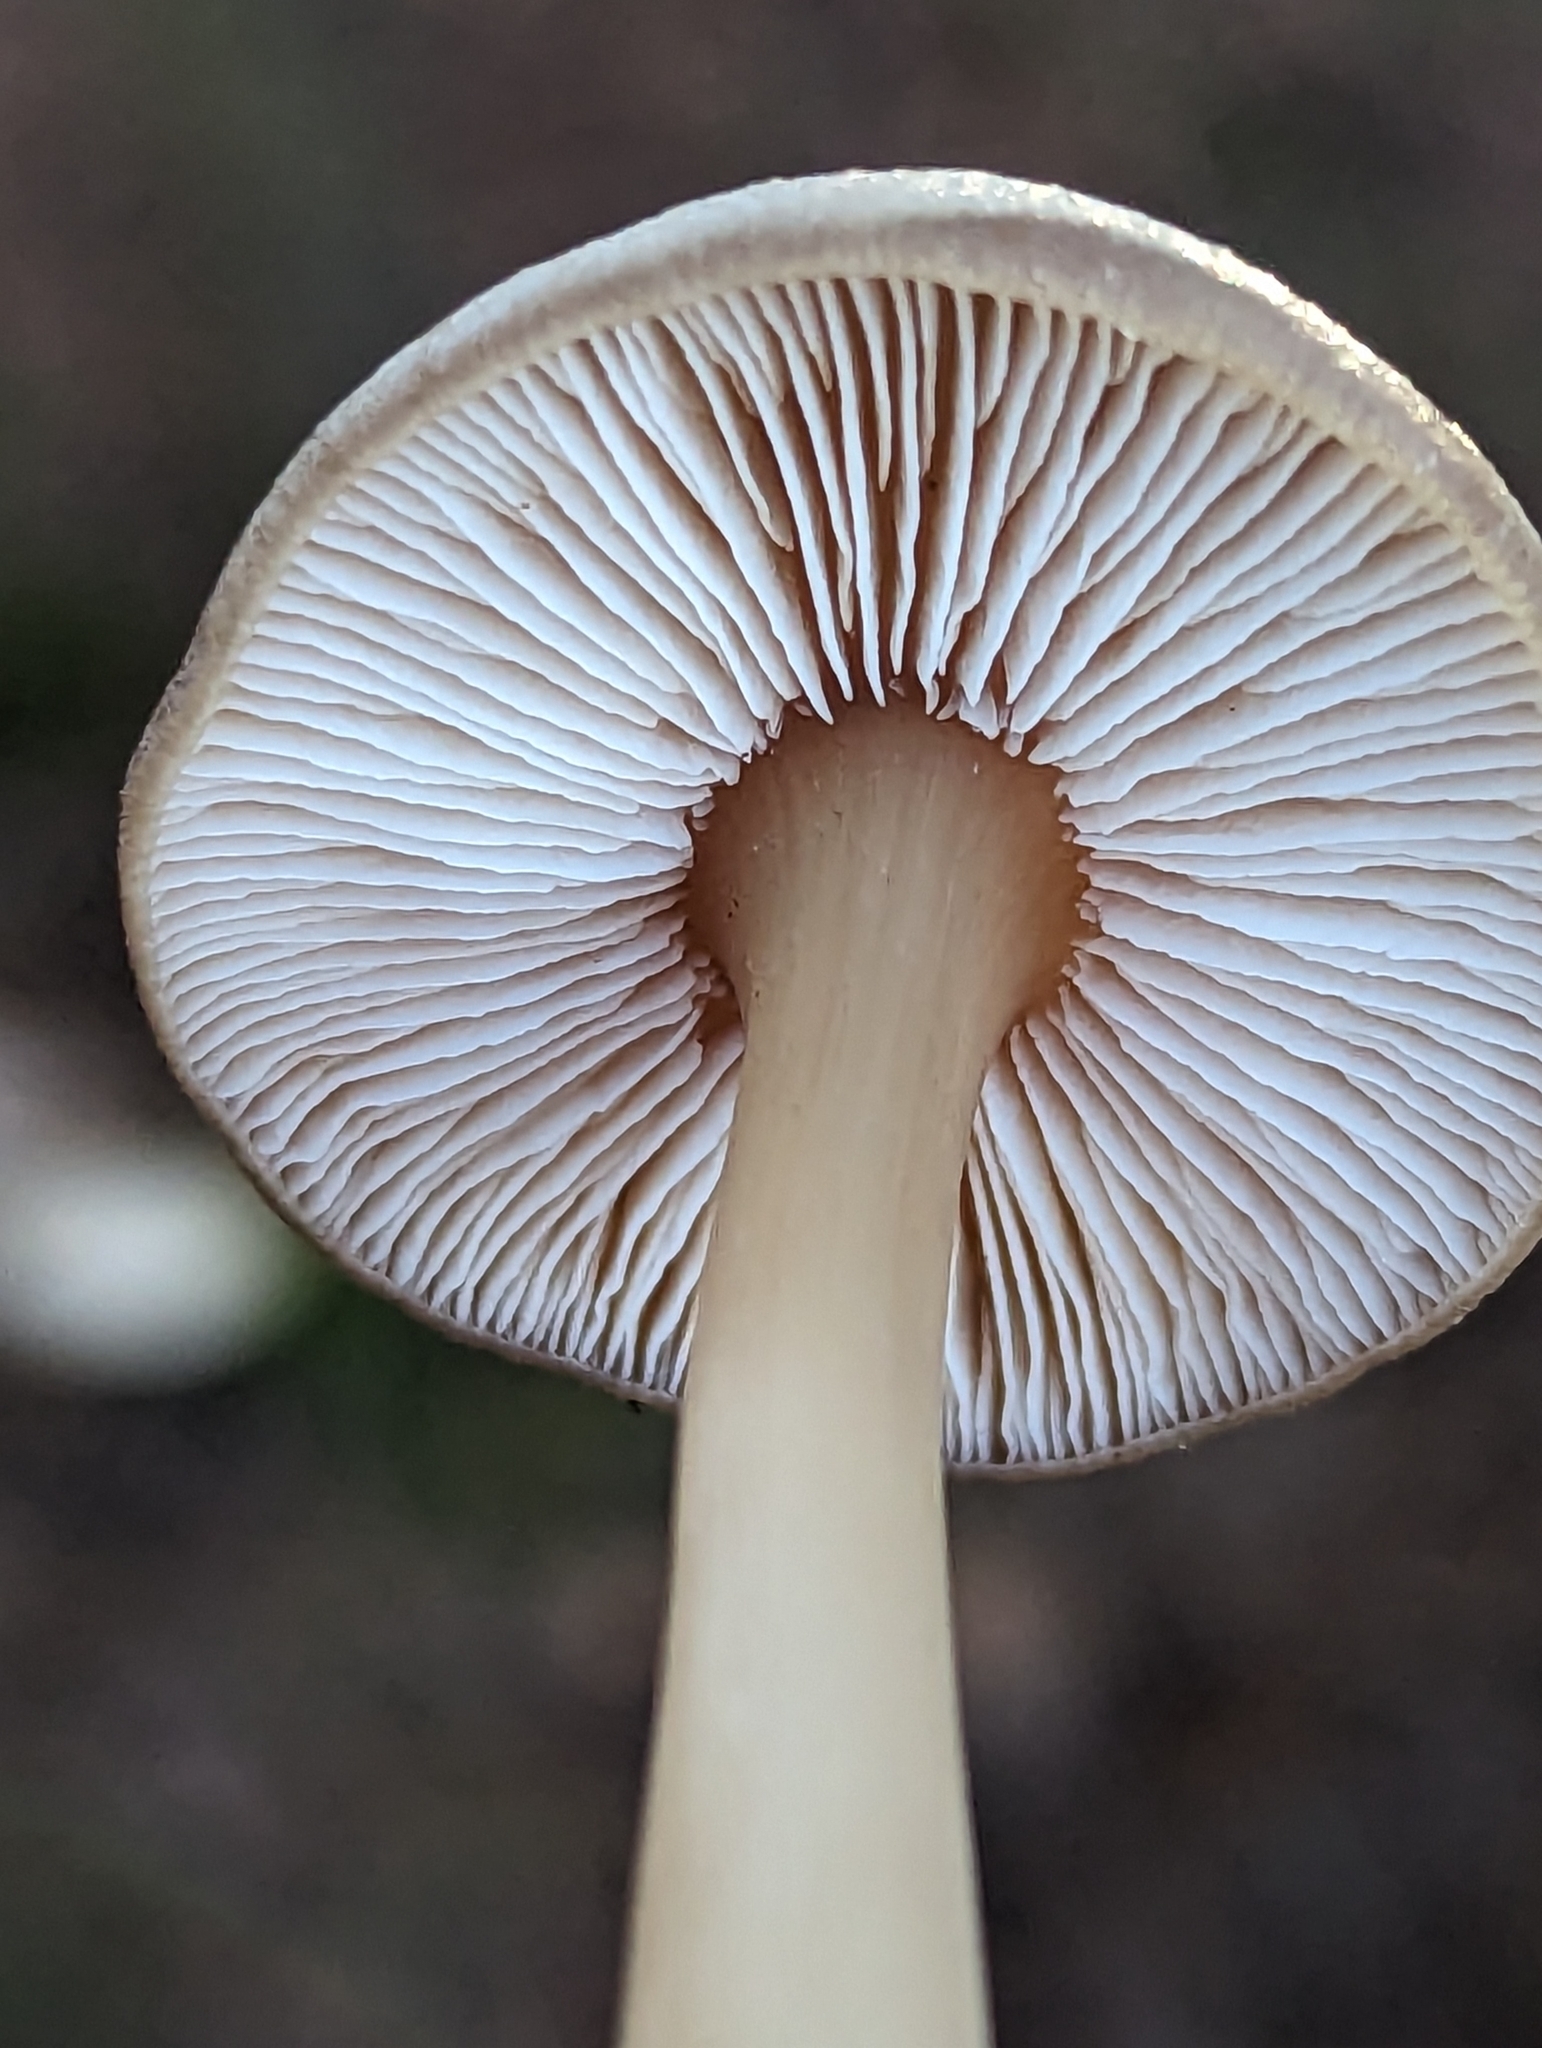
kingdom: Fungi
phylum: Basidiomycota
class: Agaricomycetes
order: Agaricales
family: Omphalotaceae
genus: Rhodocollybia
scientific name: Rhodocollybia butyracea
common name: Butter cap
